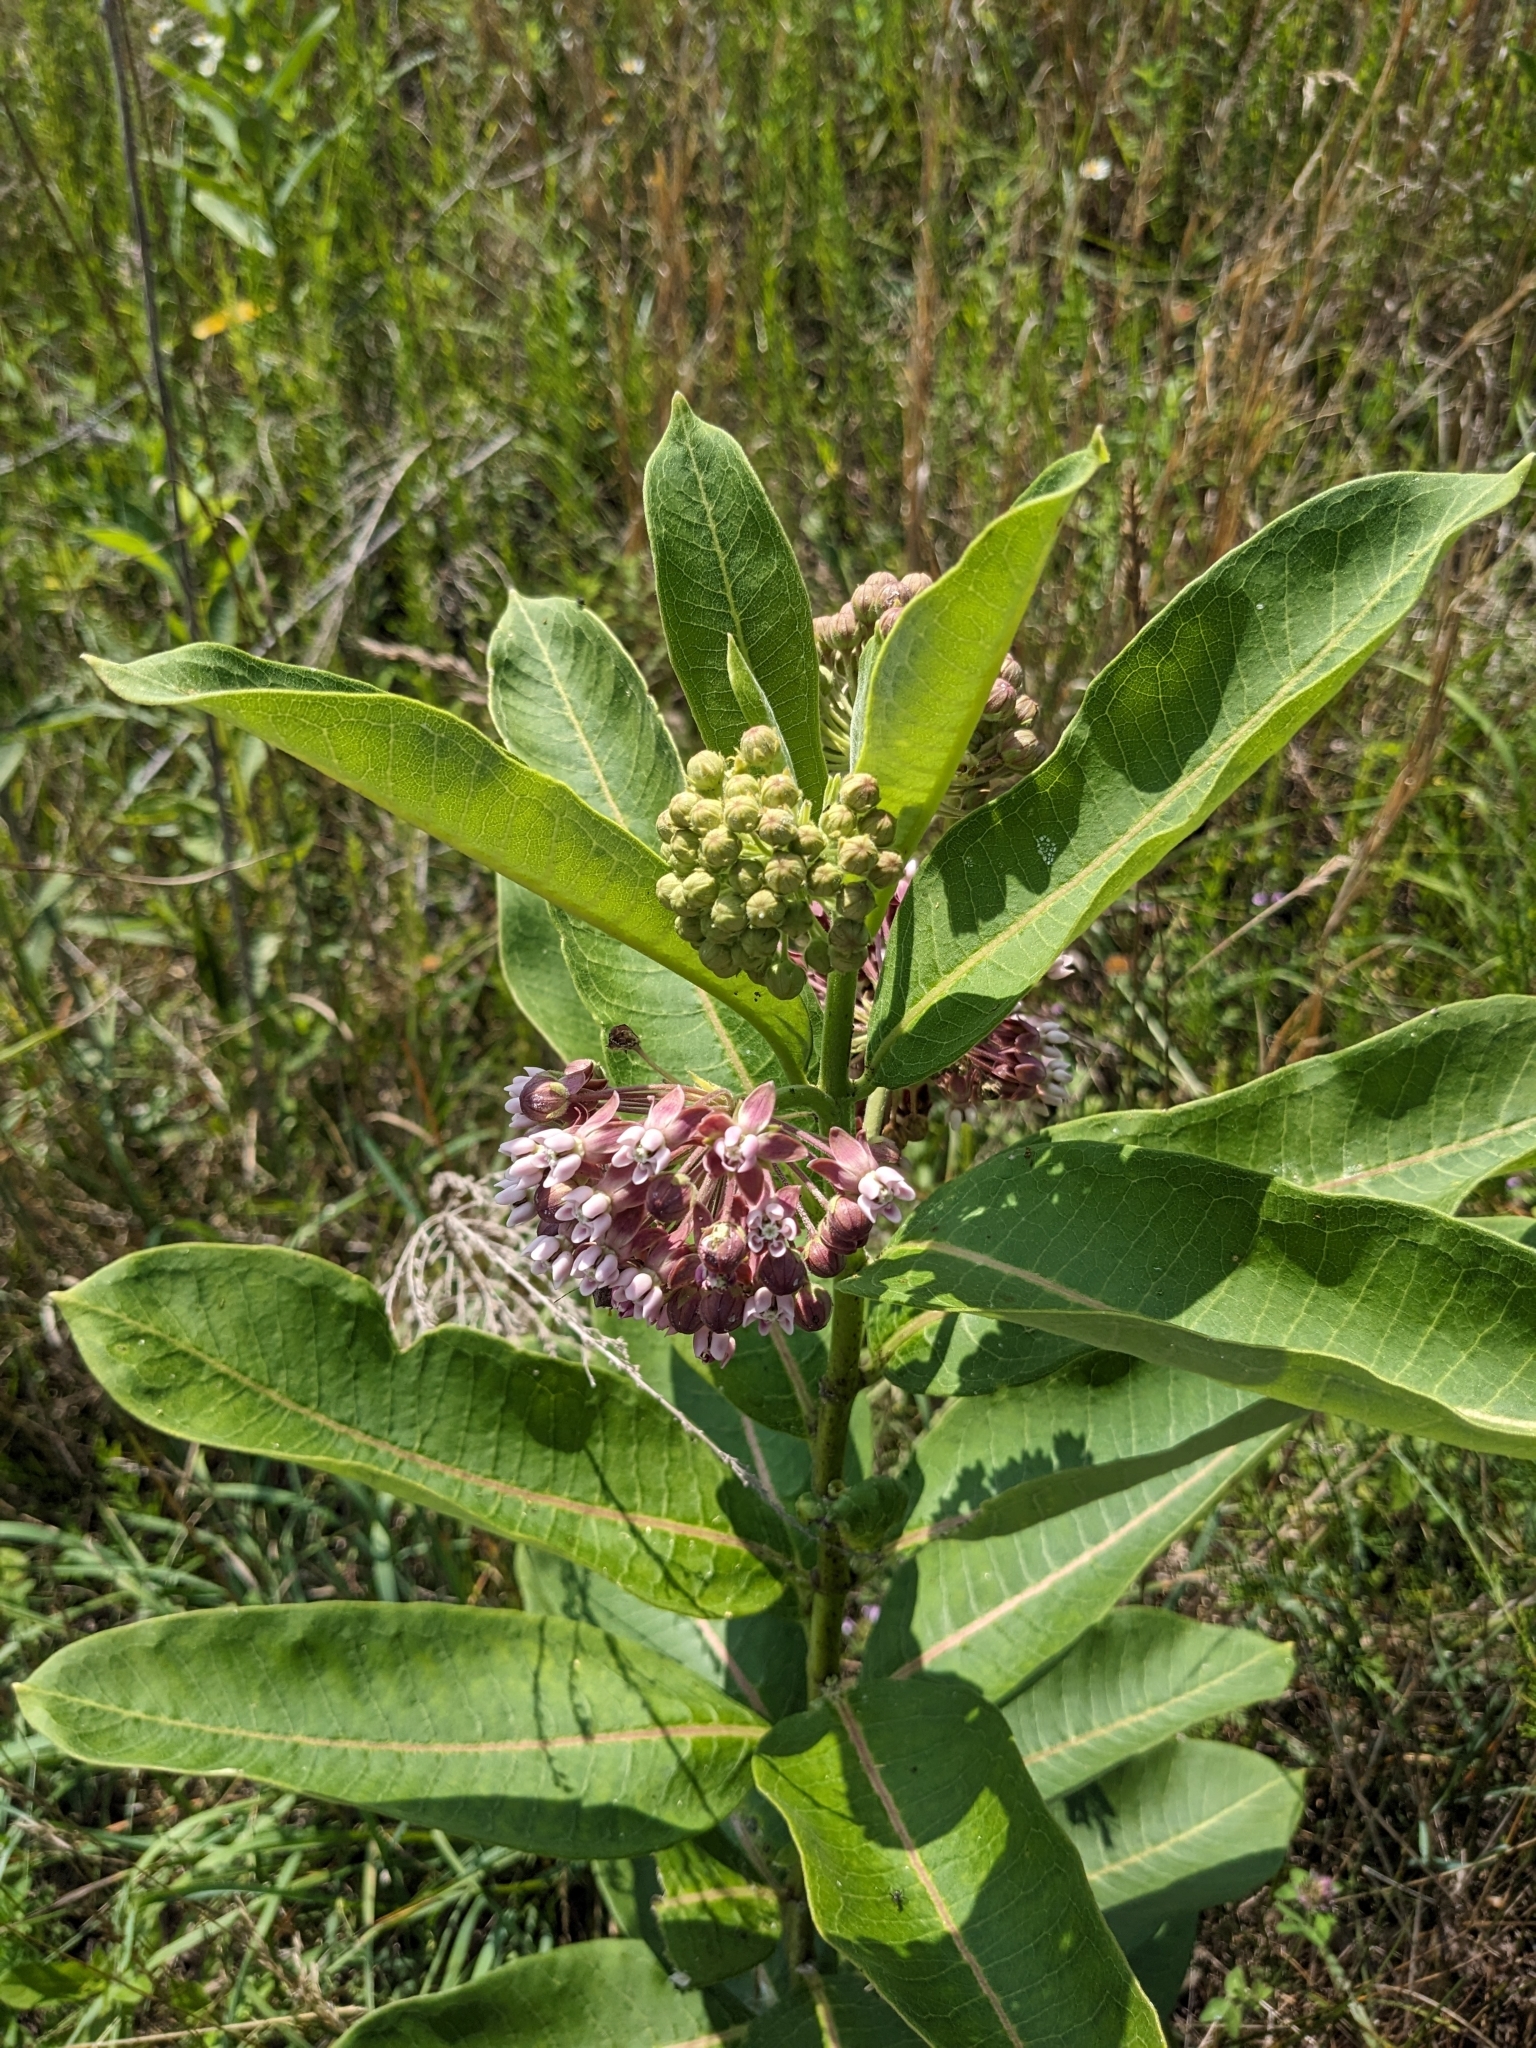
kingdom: Plantae
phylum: Tracheophyta
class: Magnoliopsida
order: Gentianales
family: Apocynaceae
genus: Asclepias
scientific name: Asclepias syriaca
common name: Common milkweed
